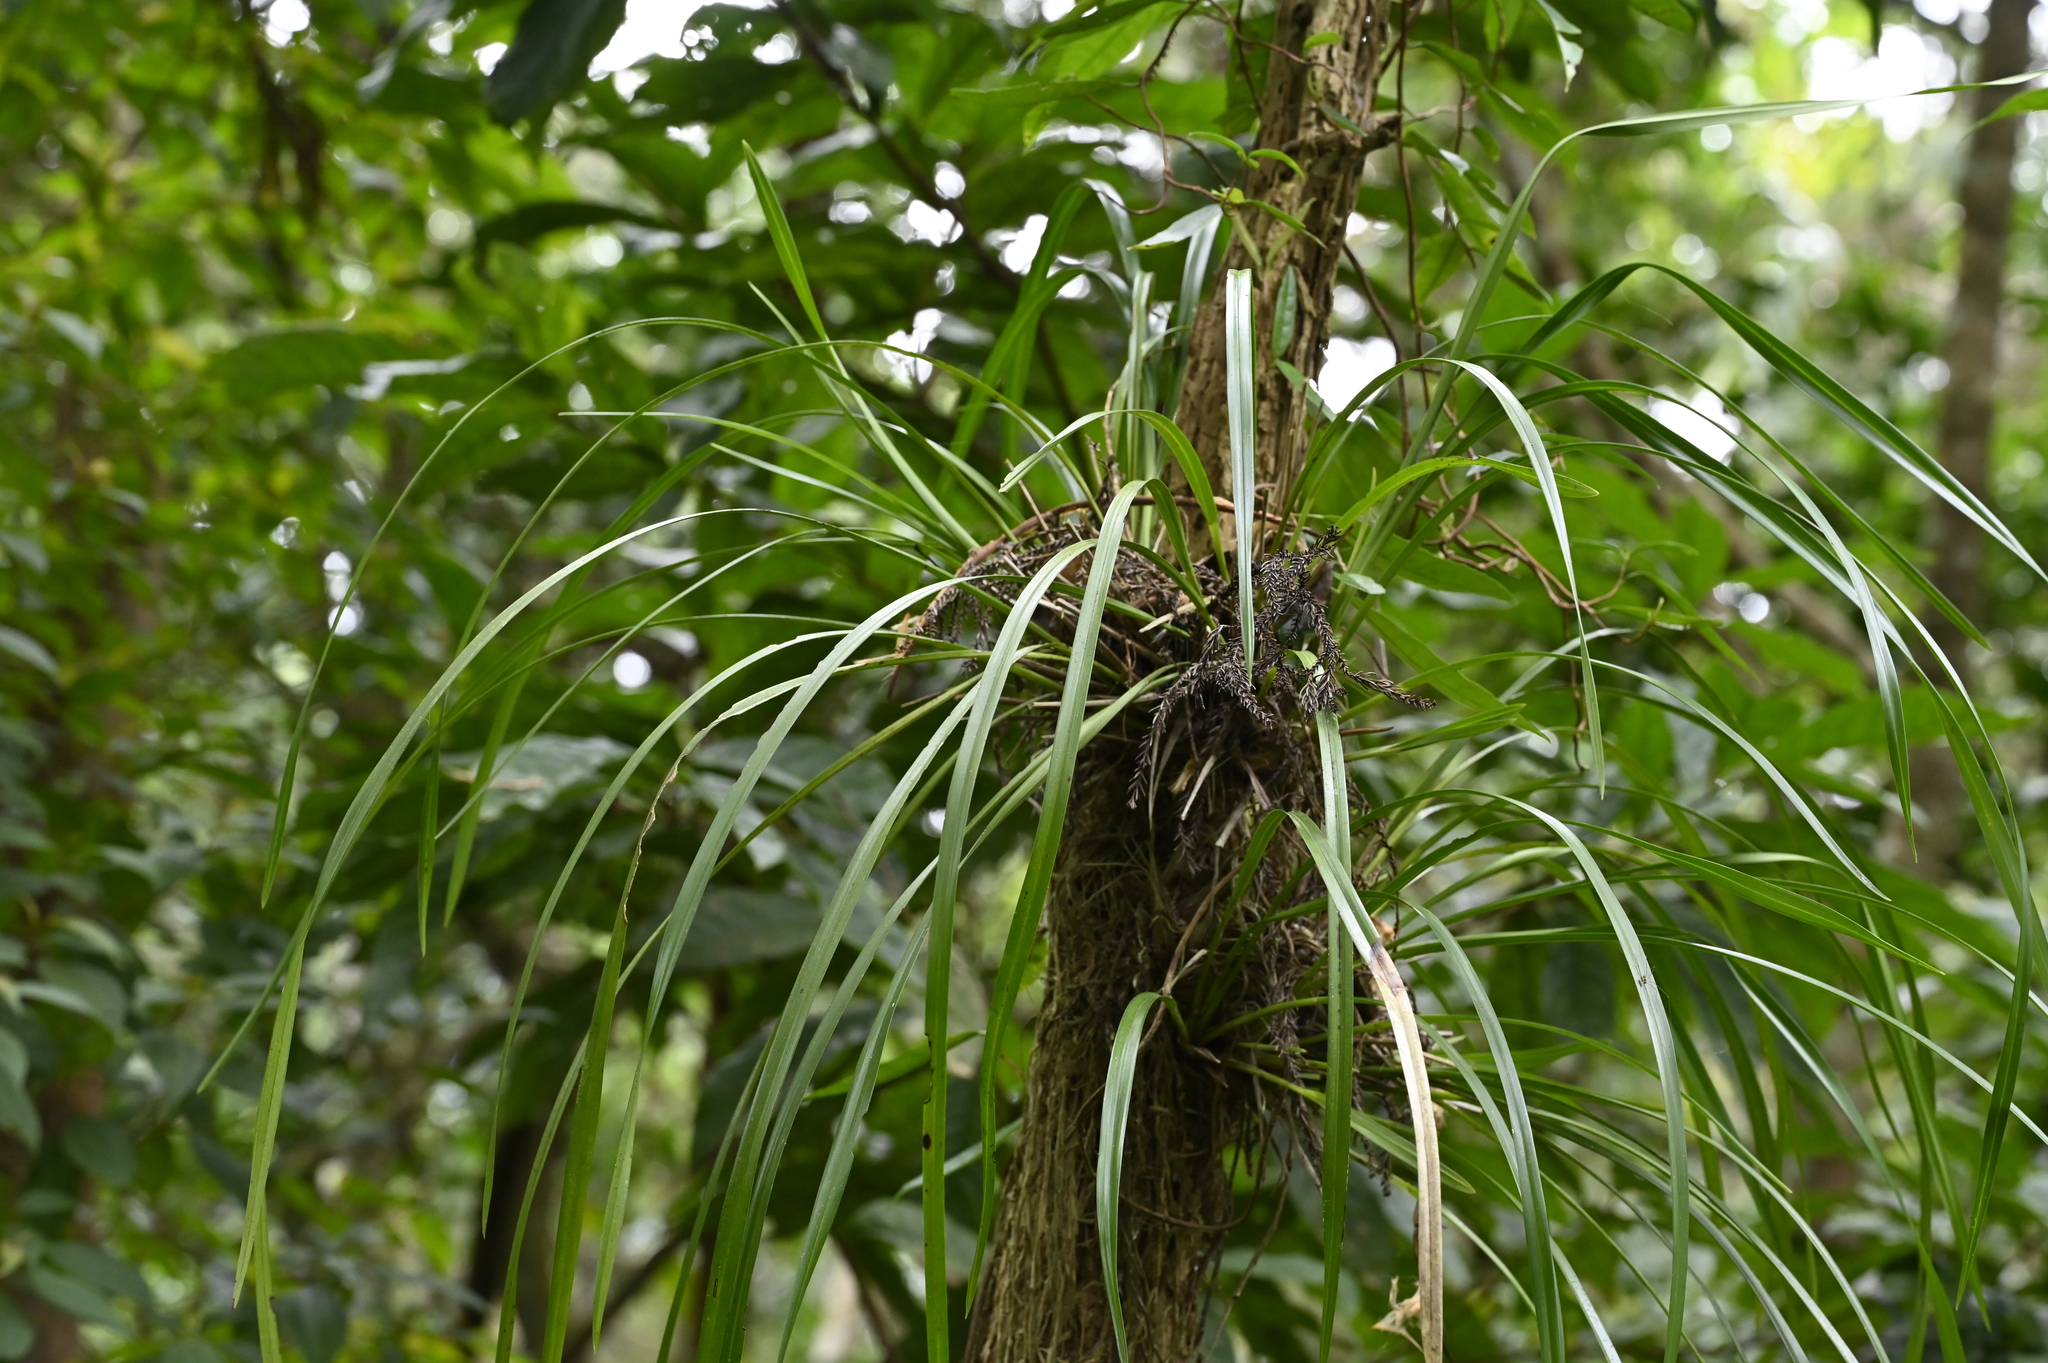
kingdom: Plantae
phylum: Tracheophyta
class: Liliopsida
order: Asparagales
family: Orchidaceae
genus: Cymbidium
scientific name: Cymbidium dayanum
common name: Orchid
